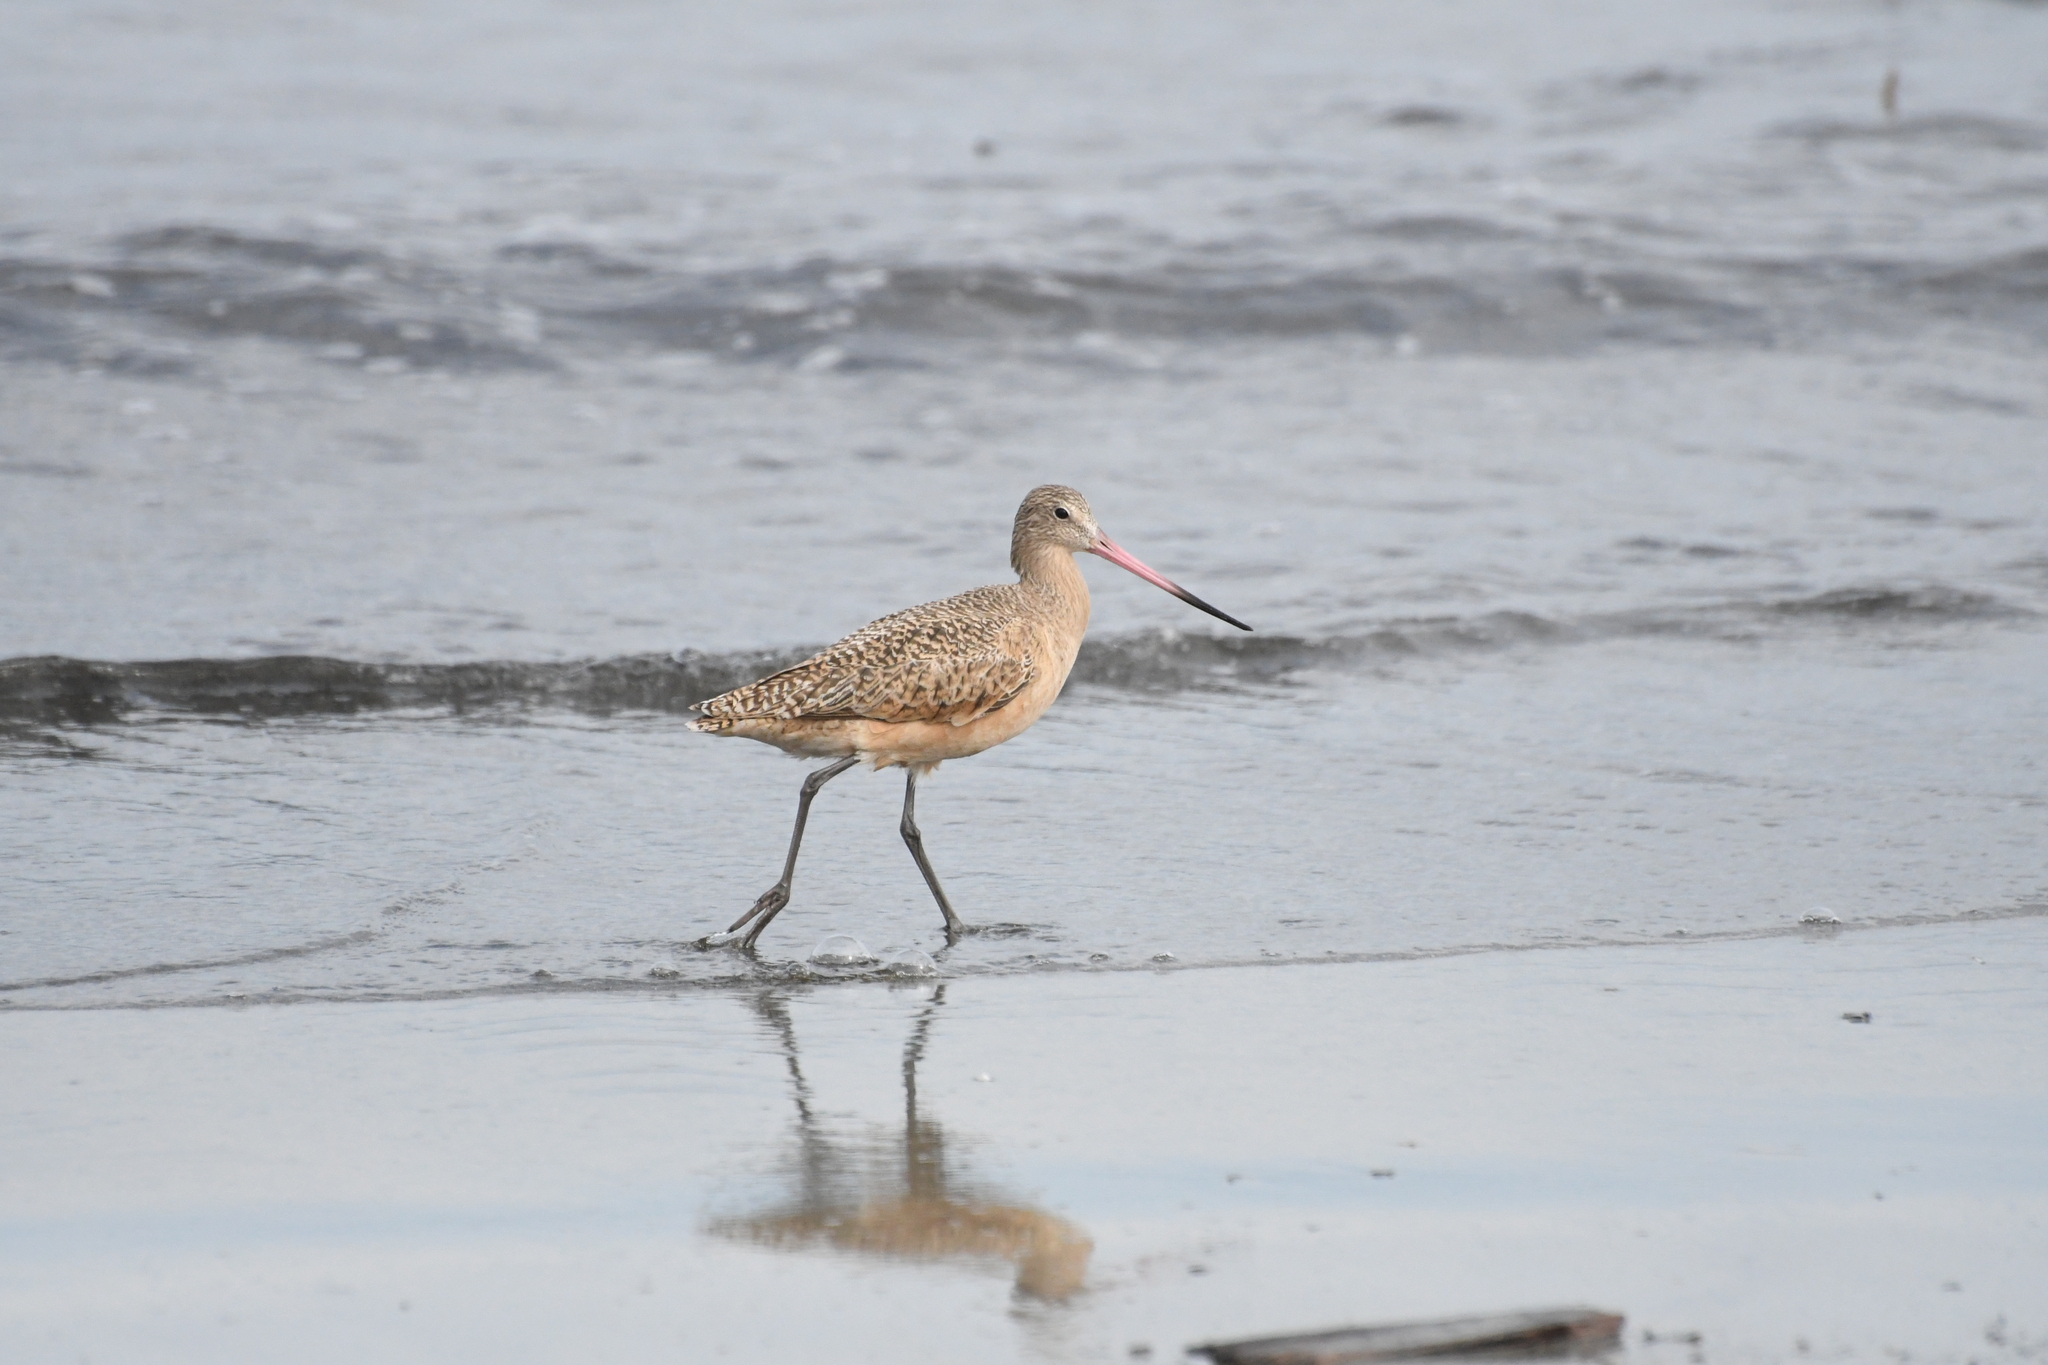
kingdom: Animalia
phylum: Chordata
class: Aves
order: Charadriiformes
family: Scolopacidae
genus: Limosa
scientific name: Limosa fedoa
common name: Marbled godwit
